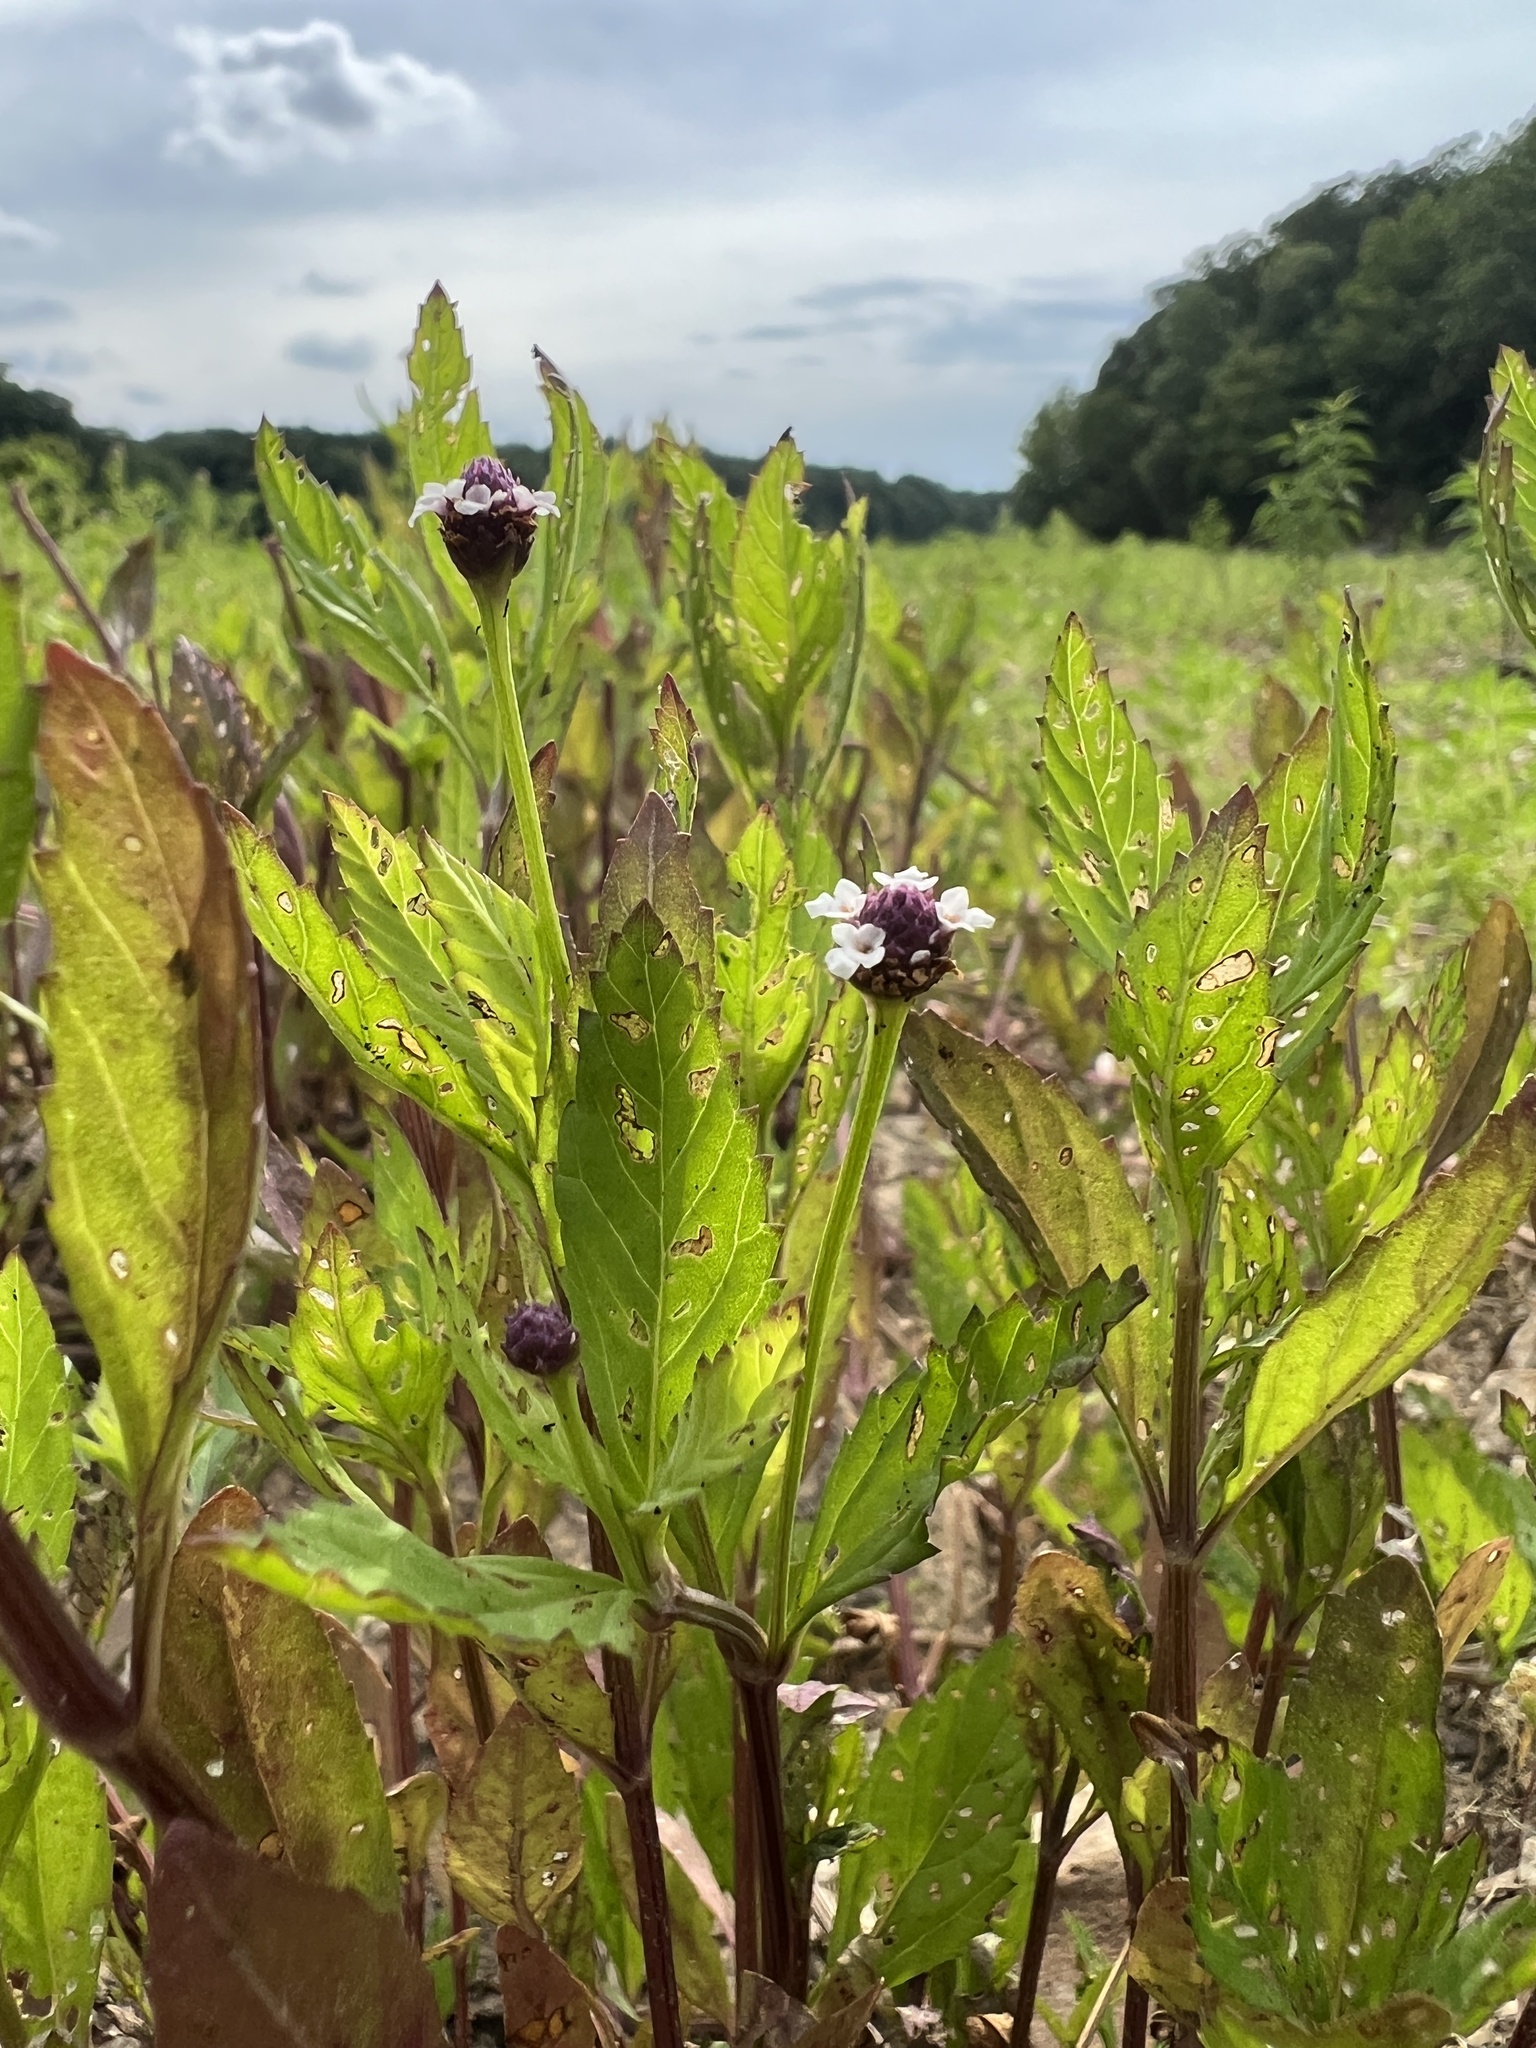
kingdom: Plantae
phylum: Tracheophyta
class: Magnoliopsida
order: Lamiales
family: Verbenaceae
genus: Phyla
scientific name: Phyla lanceolata
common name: Northern fogfruit
